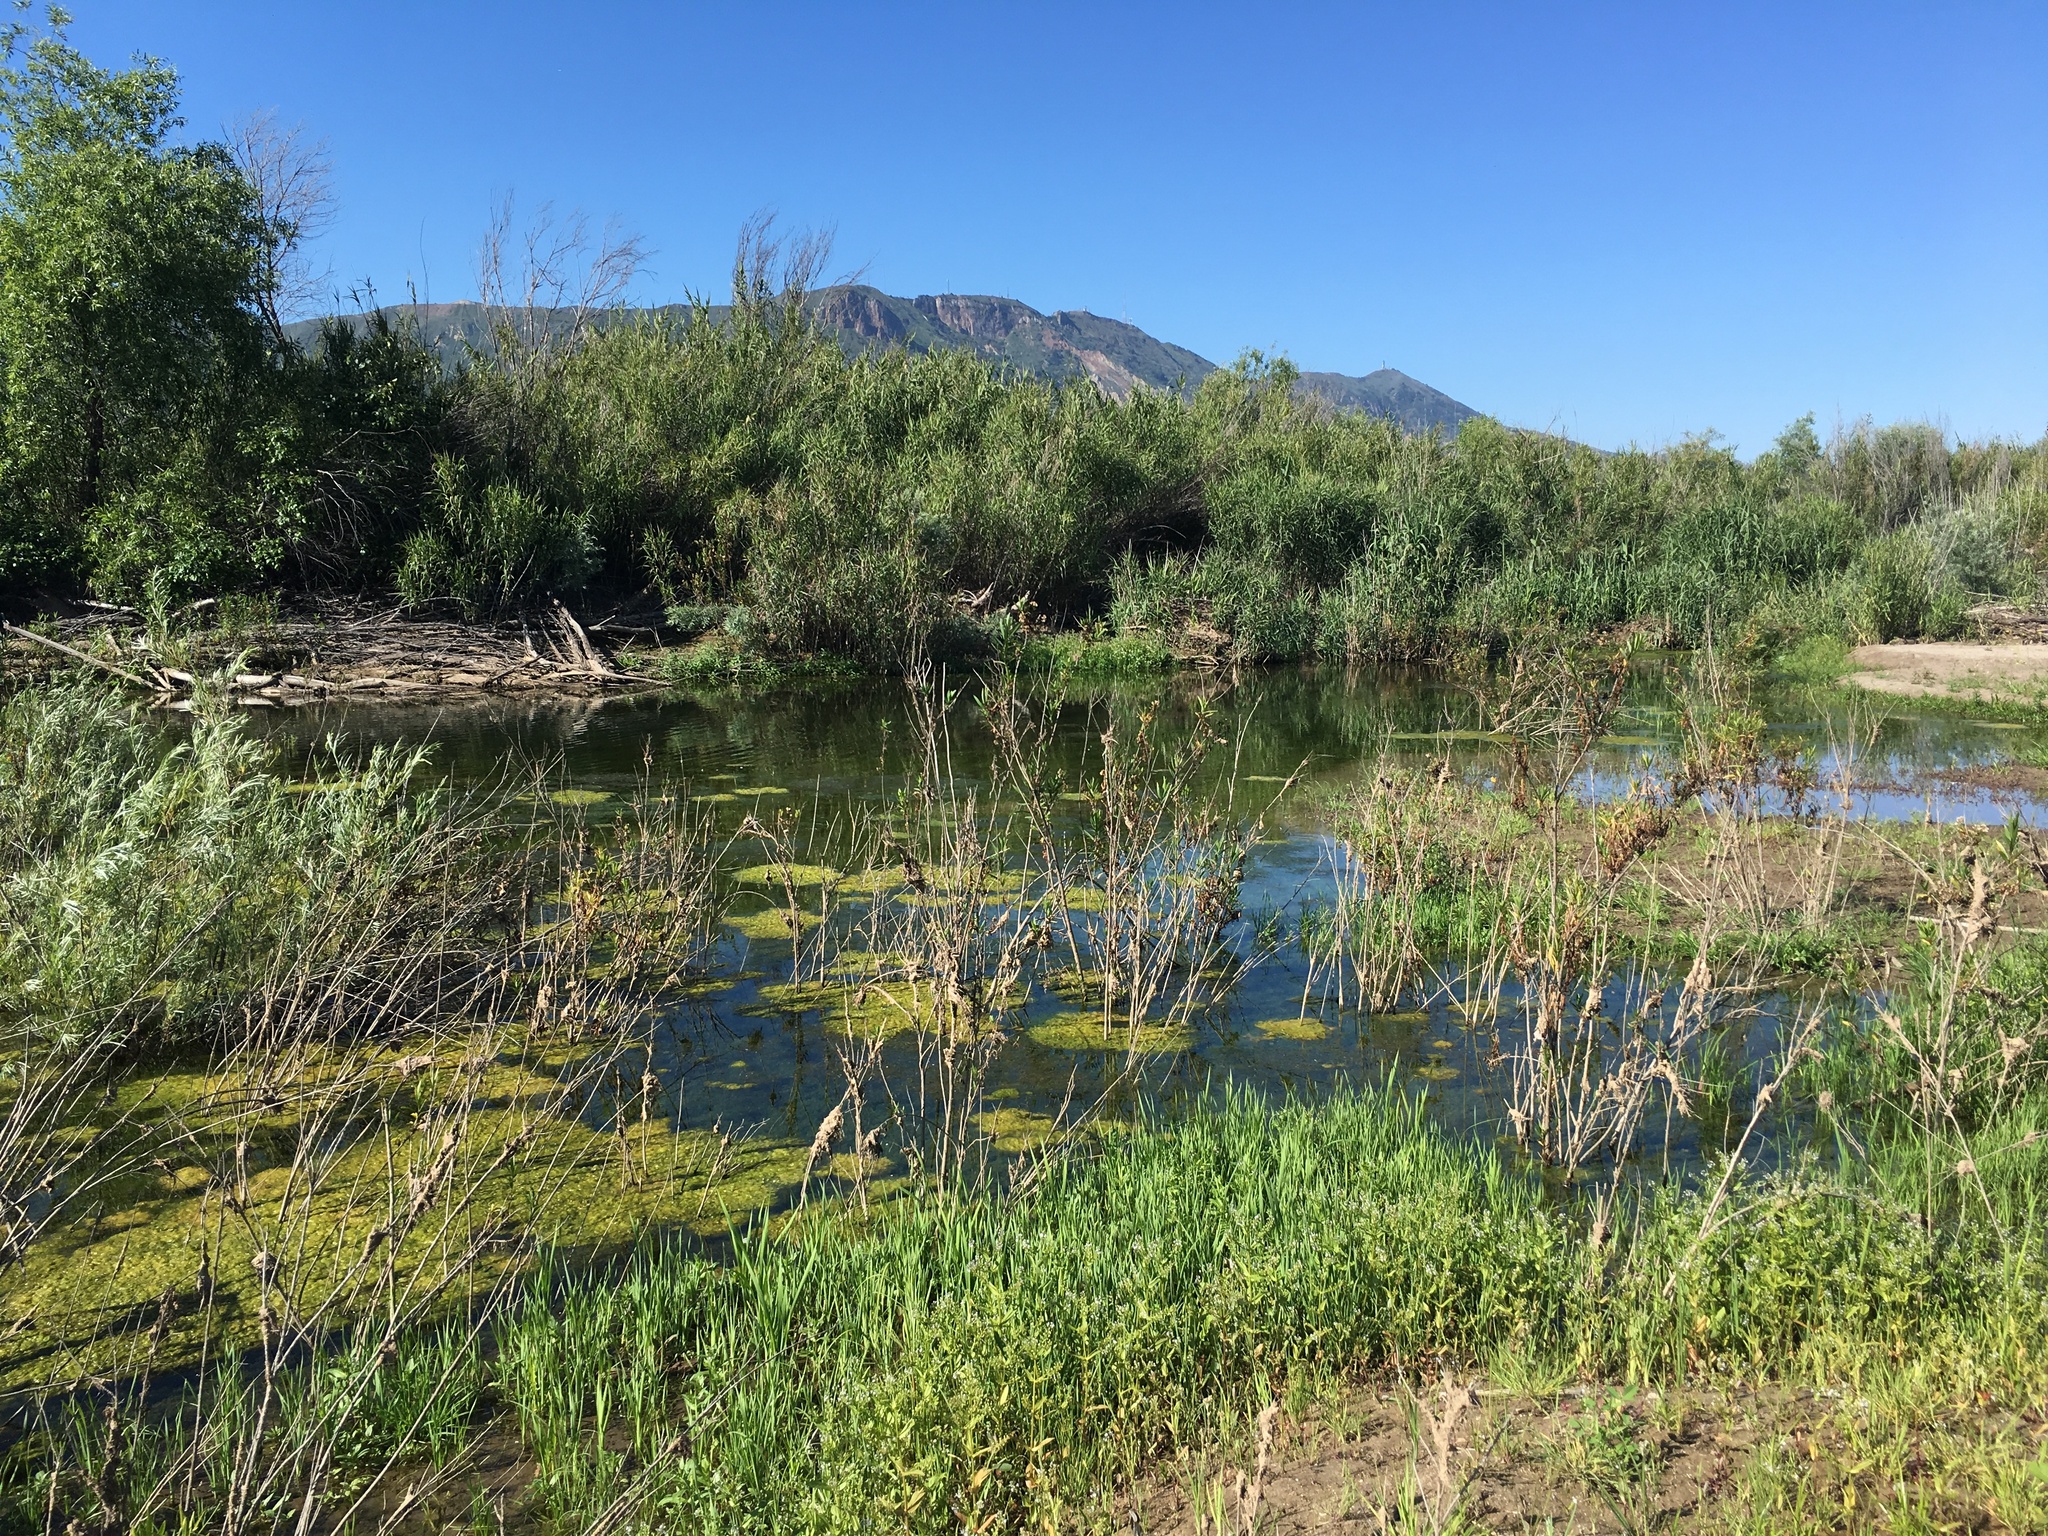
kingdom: Animalia
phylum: Chordata
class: Testudines
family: Emydidae
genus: Actinemys
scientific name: Actinemys marmorata
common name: Western pond turtle
